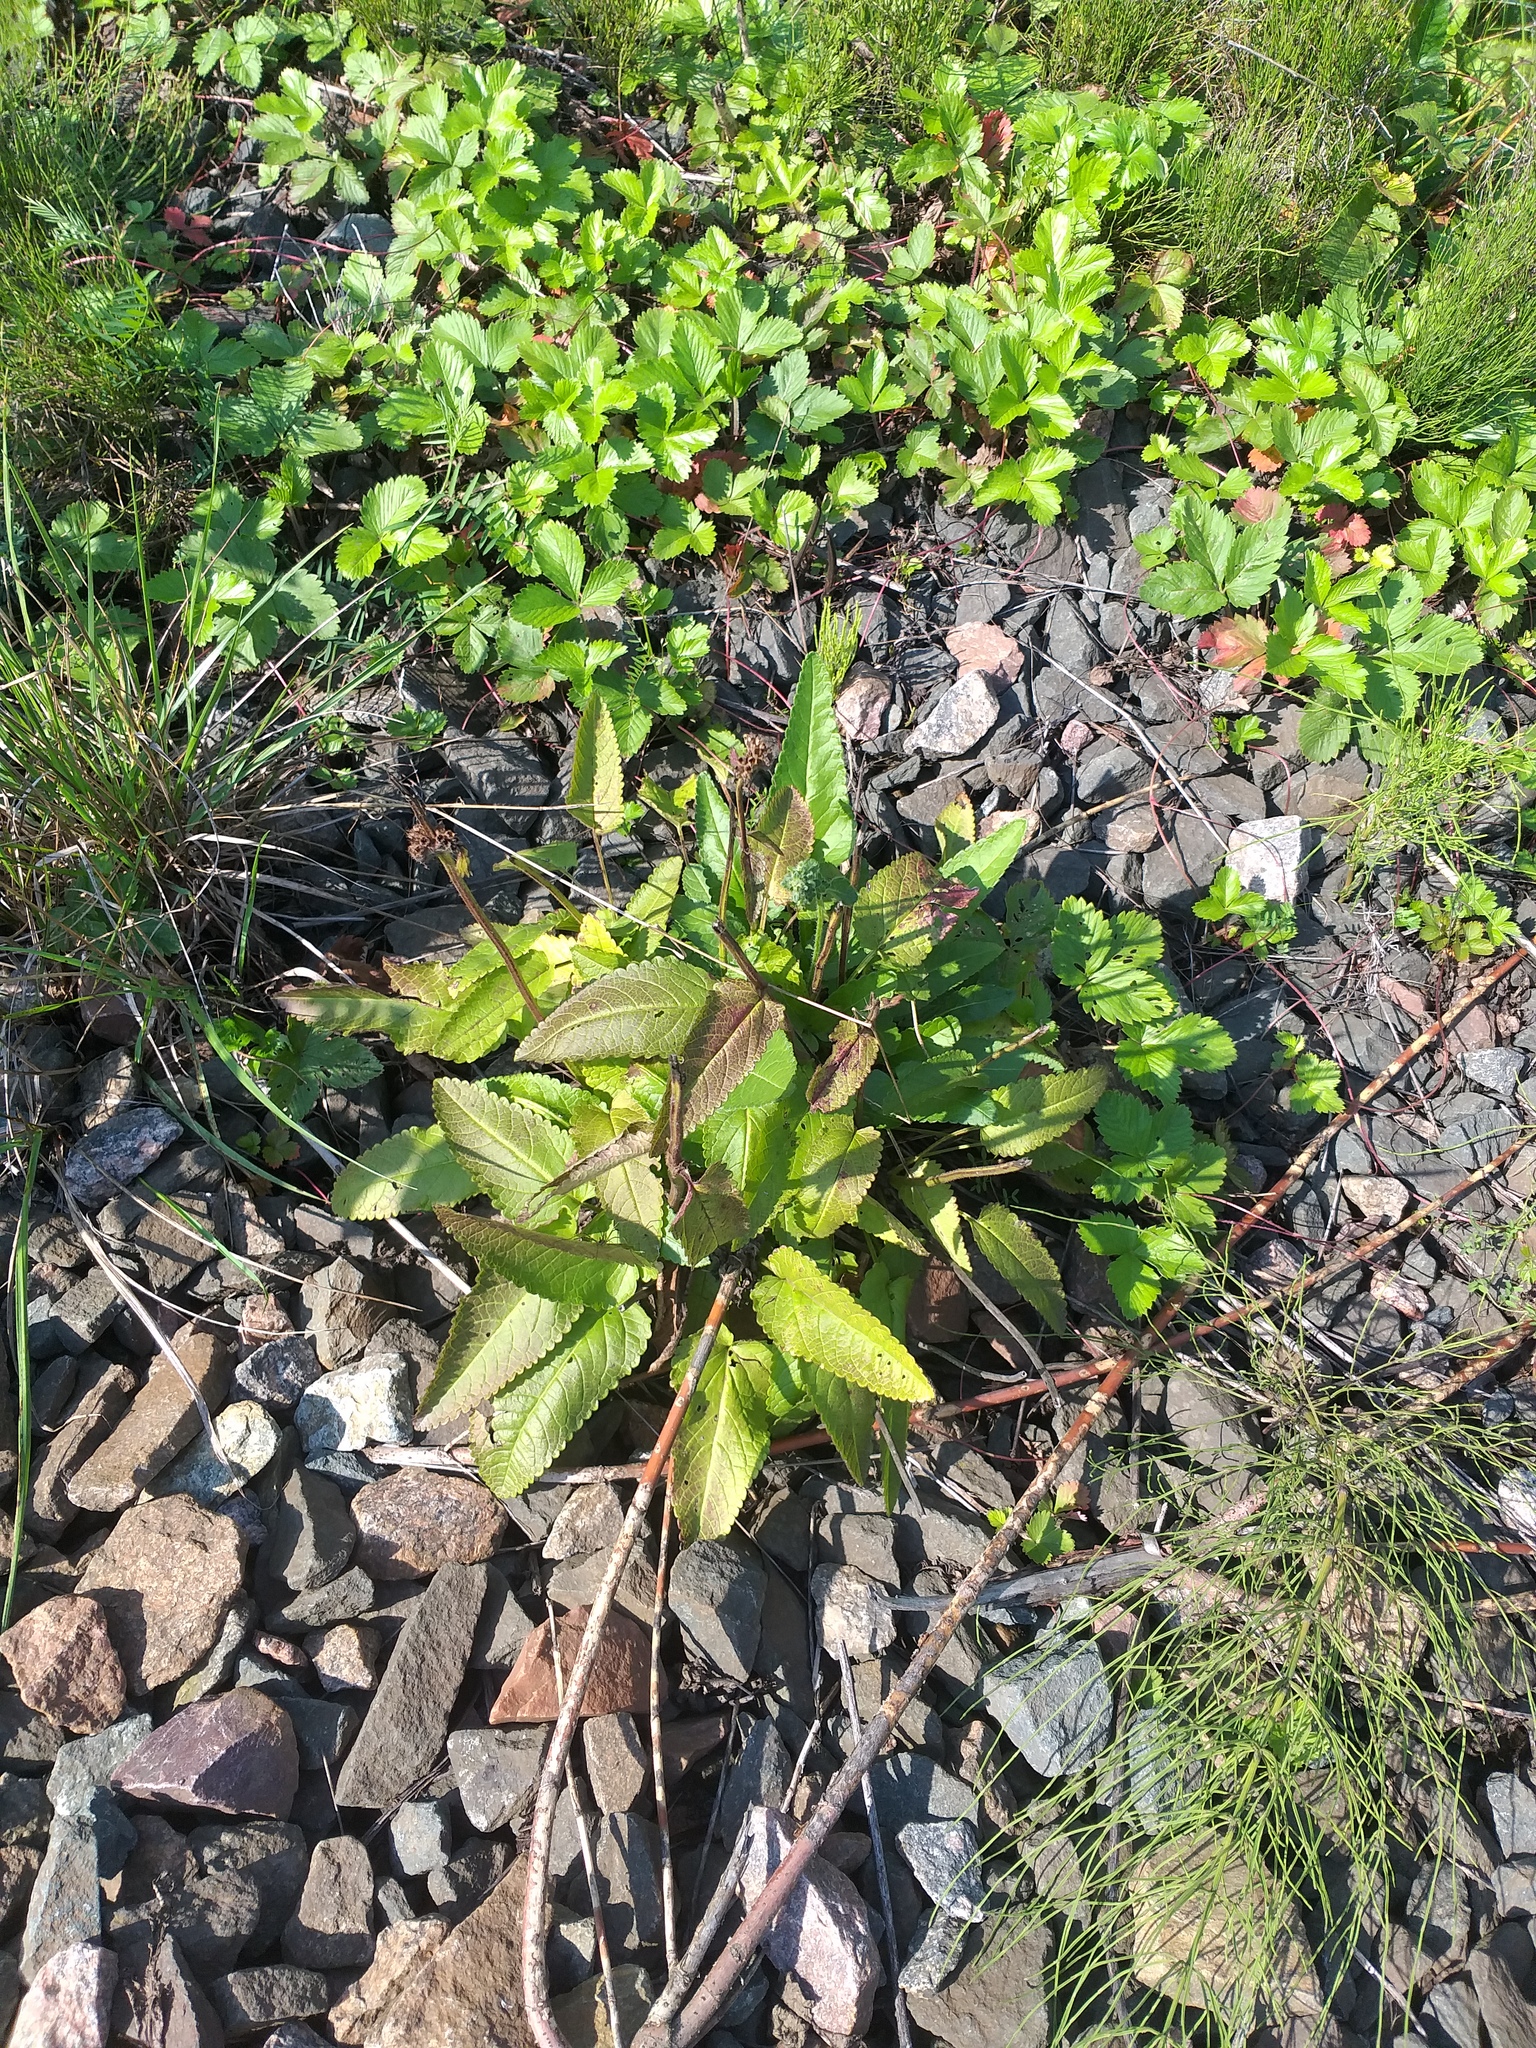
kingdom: Plantae
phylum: Tracheophyta
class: Magnoliopsida
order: Lamiales
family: Lamiaceae
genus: Betonica
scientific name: Betonica officinalis
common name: Bishop's-wort
